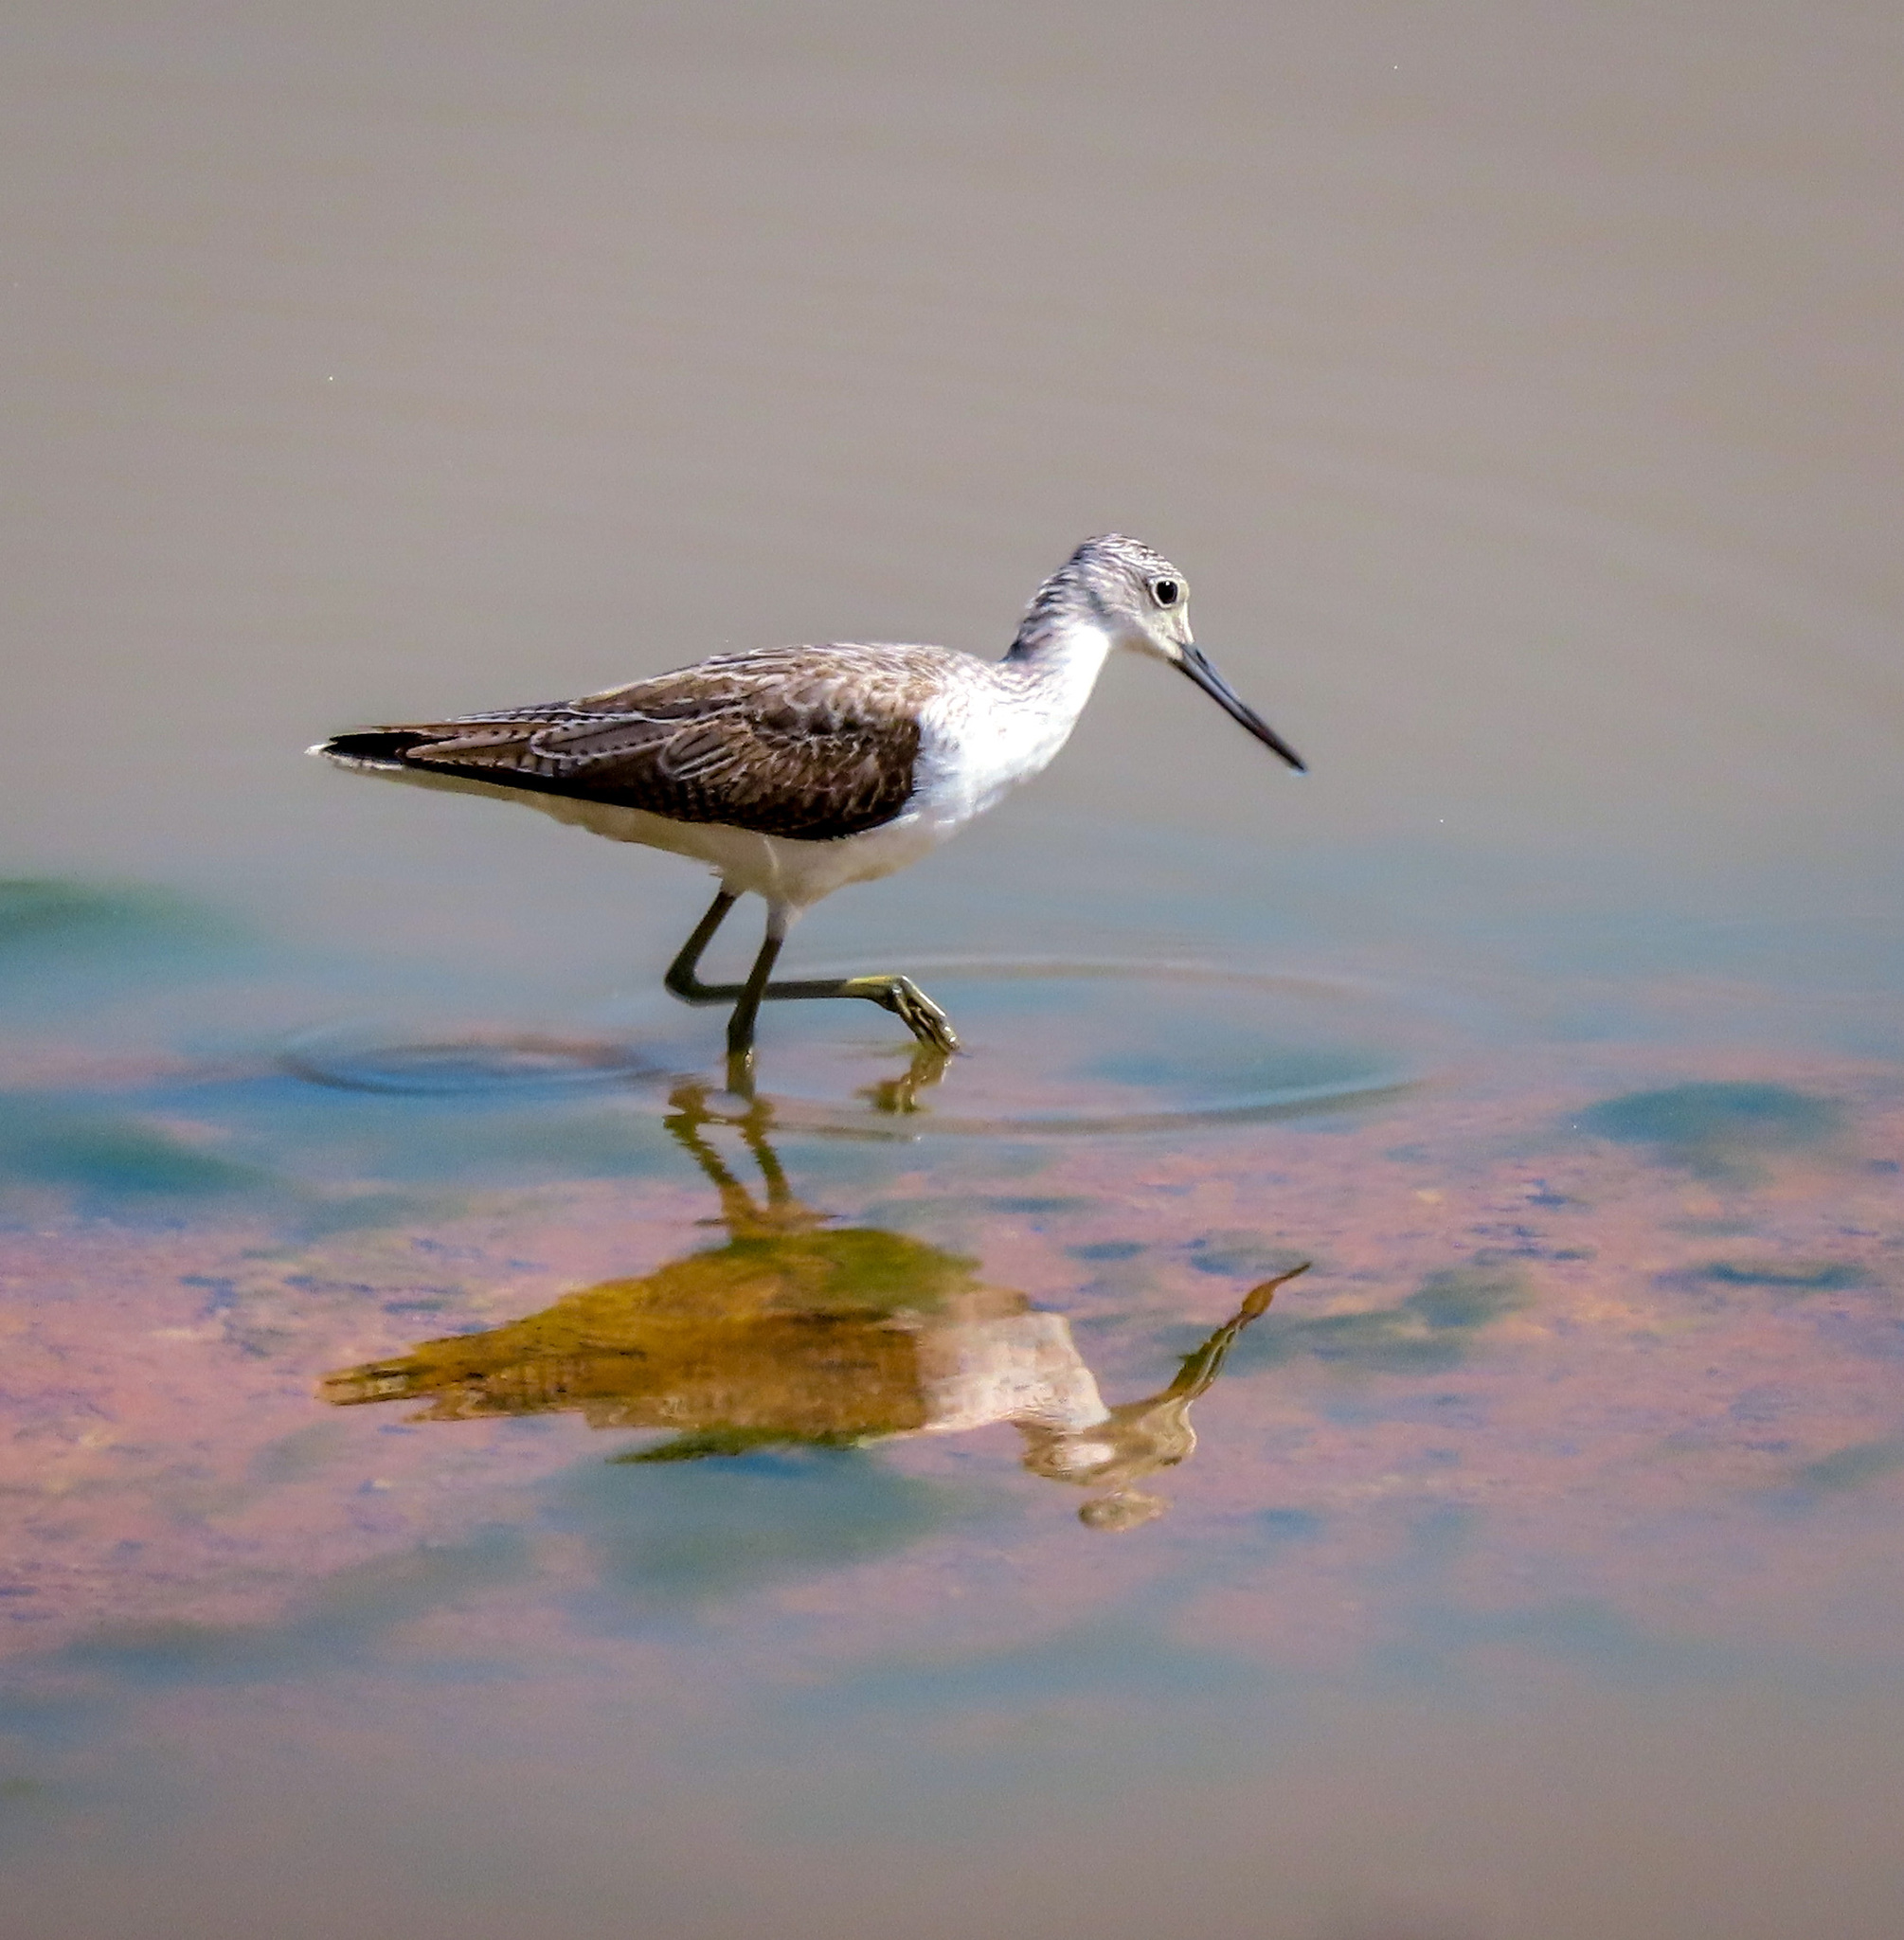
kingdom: Animalia
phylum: Chordata
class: Aves
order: Charadriiformes
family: Scolopacidae
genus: Tringa
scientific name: Tringa nebularia
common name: Common greenshank
